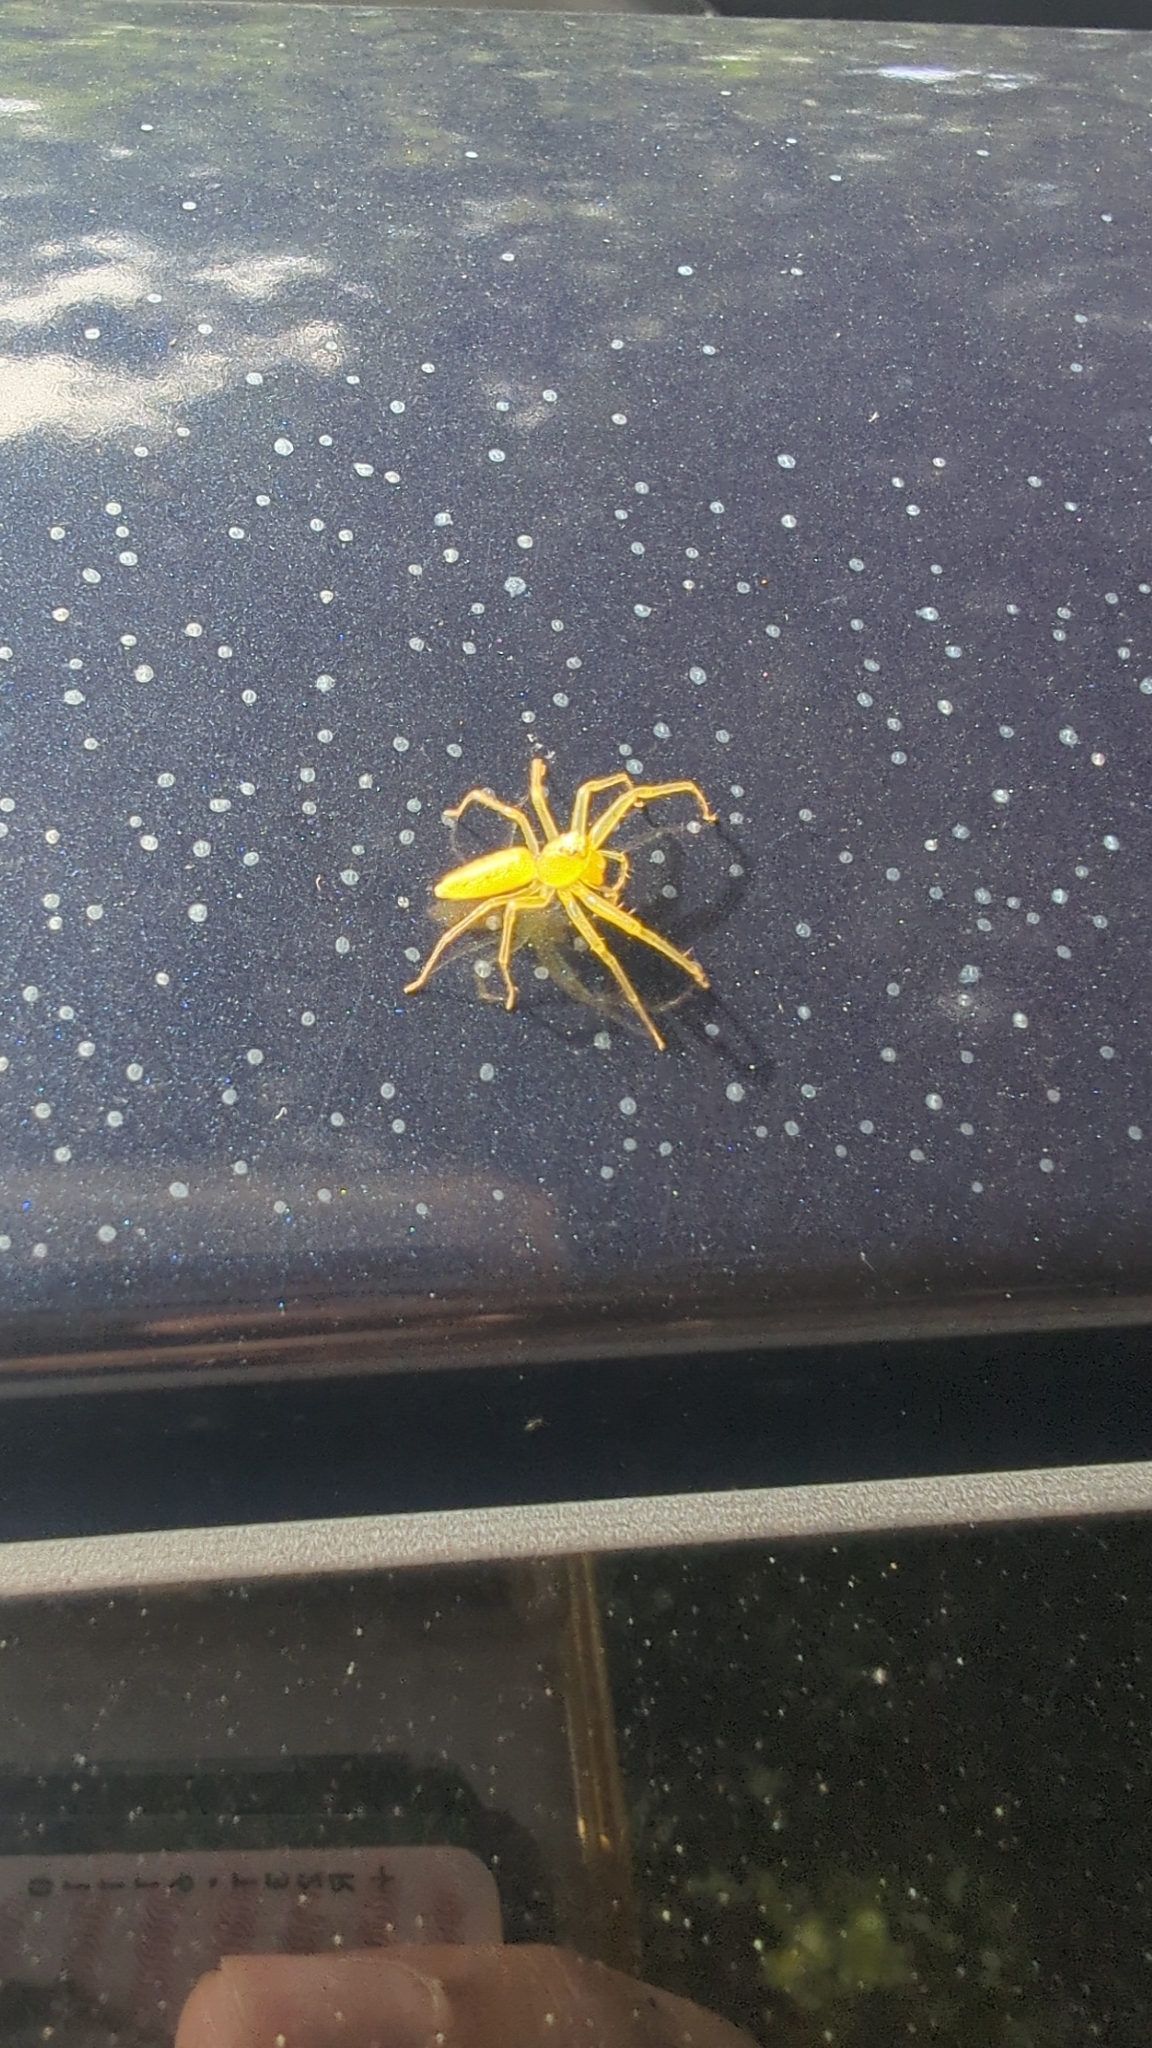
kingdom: Animalia
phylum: Arthropoda
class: Arachnida
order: Araneae
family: Salticidae
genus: Lyssomanes
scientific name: Lyssomanes viridis
